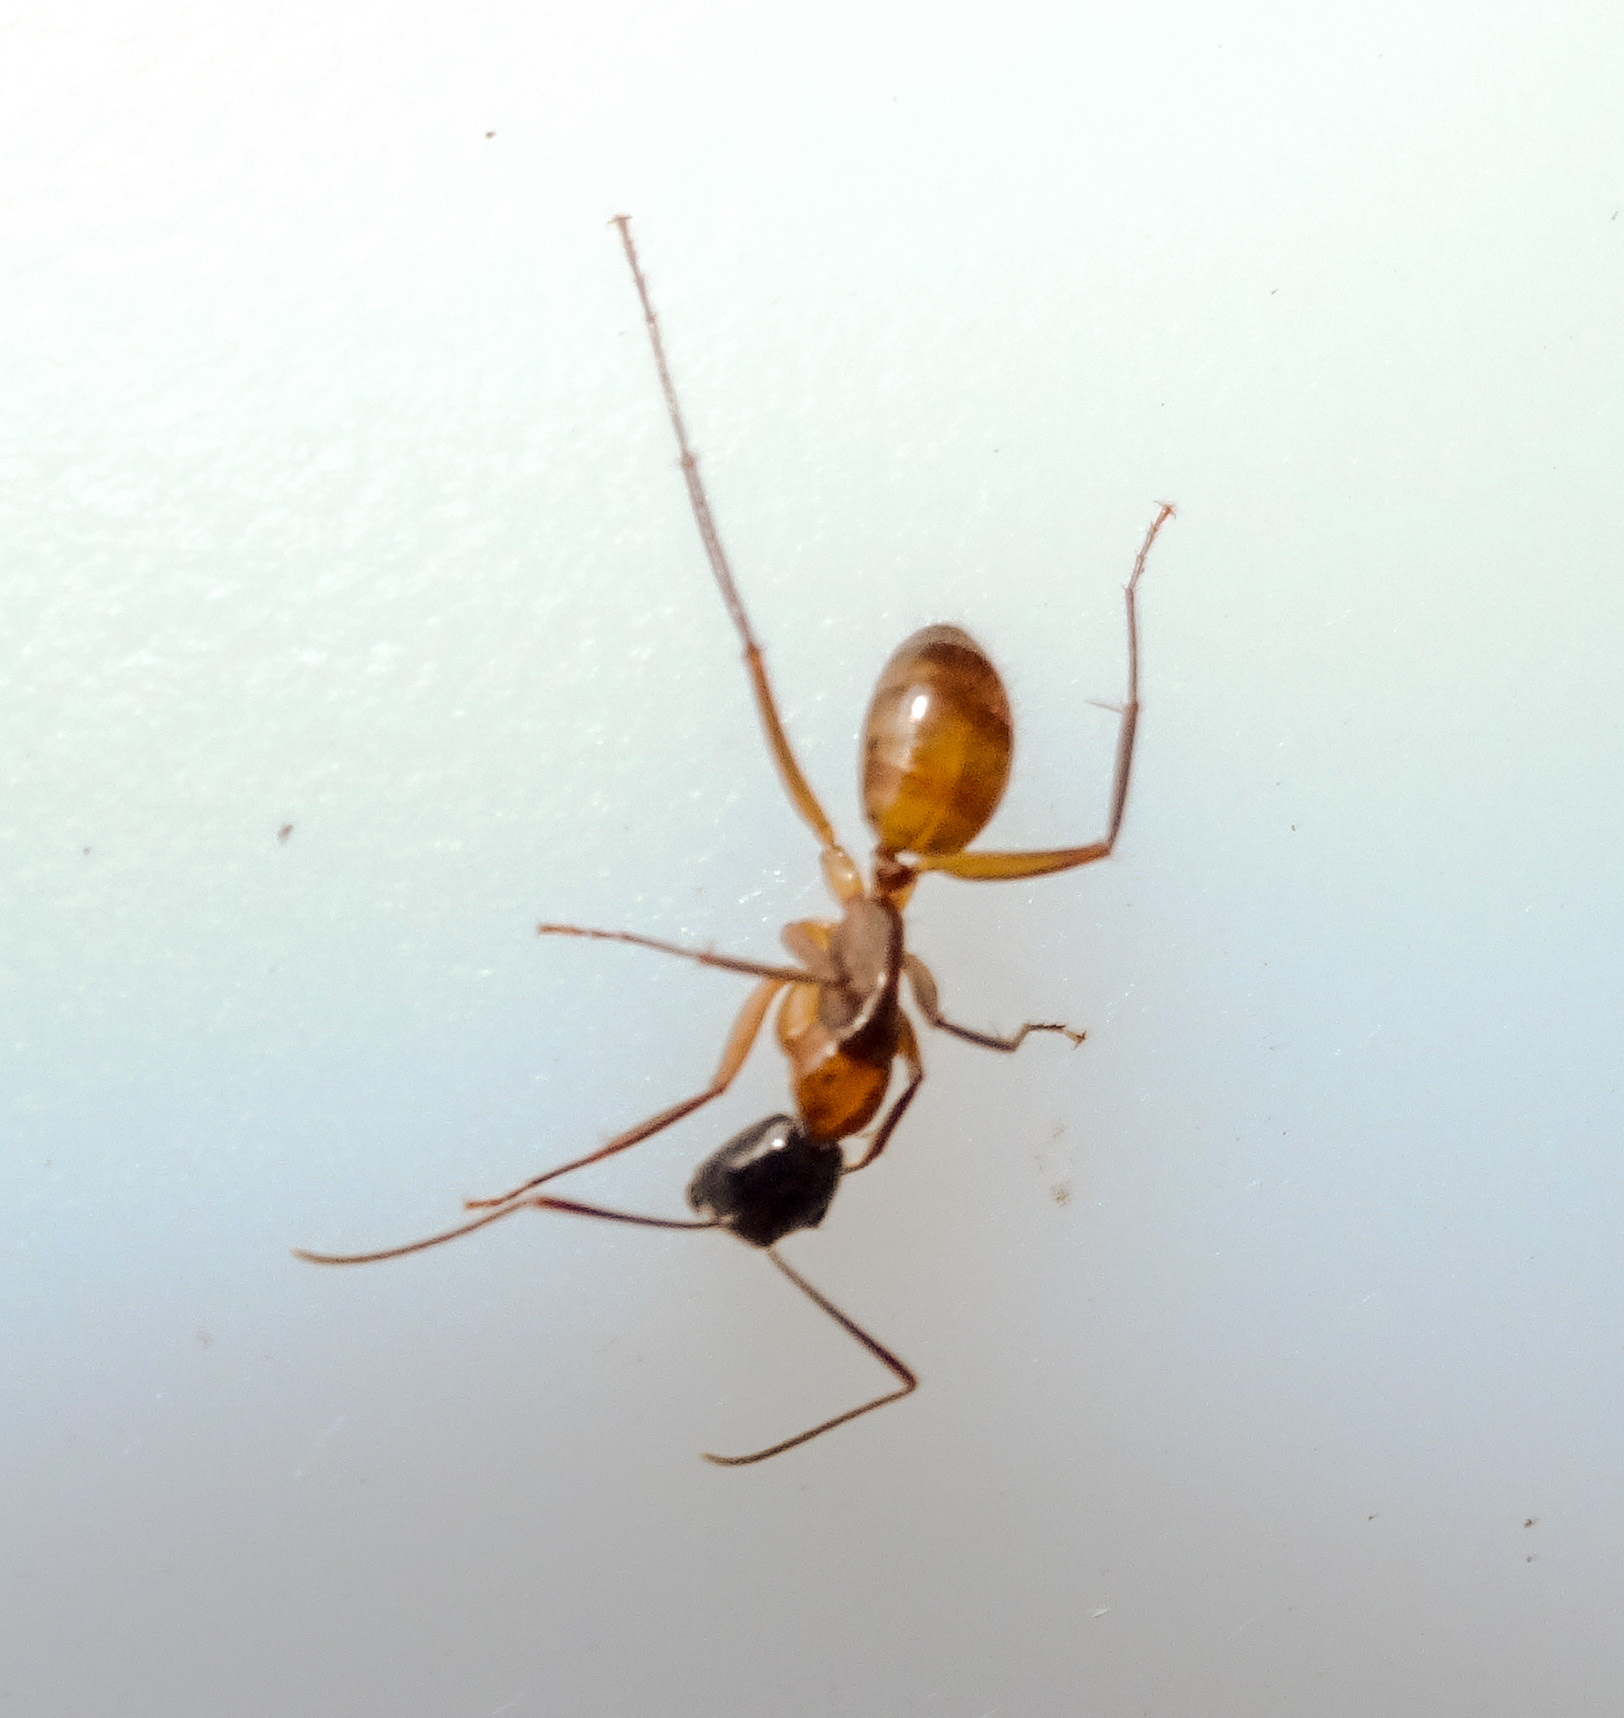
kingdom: Animalia
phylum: Arthropoda
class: Insecta
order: Hymenoptera
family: Formicidae
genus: Camponotus
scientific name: Camponotus americanus
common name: American carpenter ant
